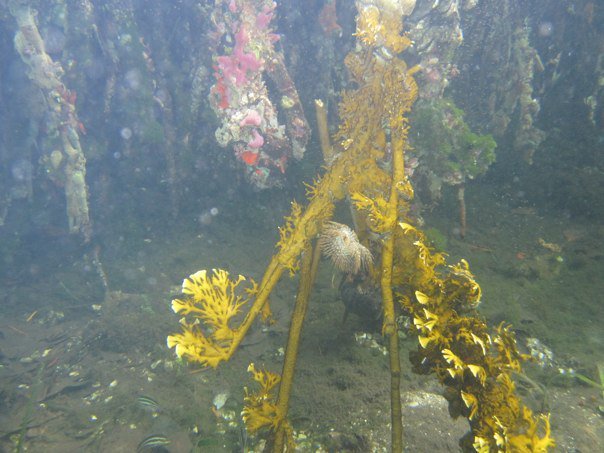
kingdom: Animalia
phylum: Cnidaria
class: Hydrozoa
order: Anthoathecata
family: Milleporidae
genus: Millepora
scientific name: Millepora alcicornis
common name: Branching fire coral
